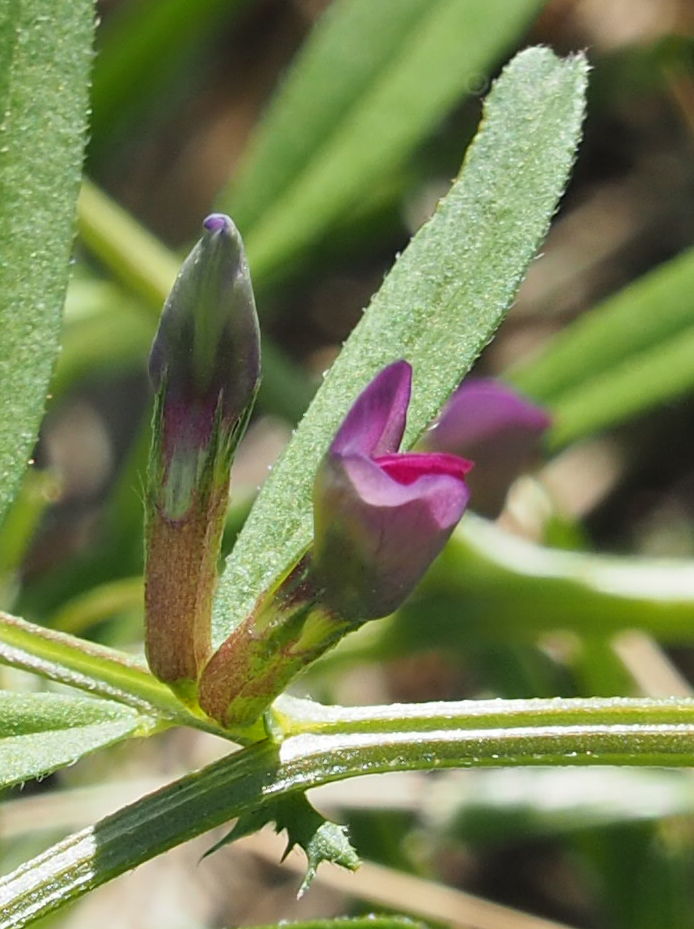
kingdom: Plantae
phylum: Tracheophyta
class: Magnoliopsida
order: Fabales
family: Fabaceae
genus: Vicia
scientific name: Vicia sativa
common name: Garden vetch
